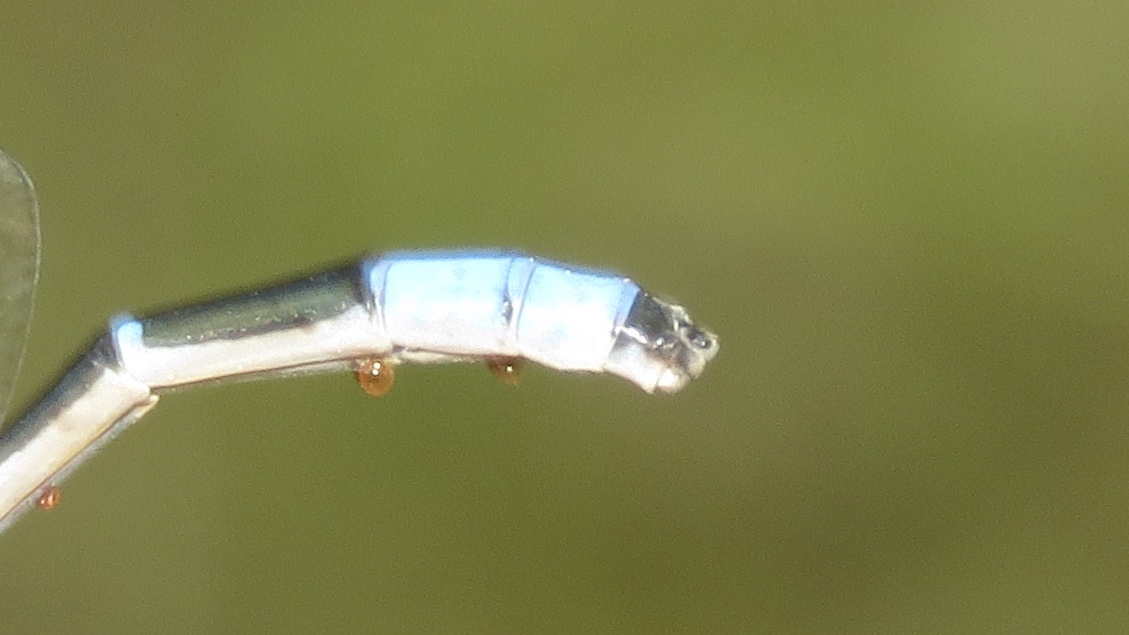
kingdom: Animalia
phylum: Arthropoda
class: Insecta
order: Odonata
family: Coenagrionidae
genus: Enallagma
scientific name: Enallagma carunculatum
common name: Tule bluet
